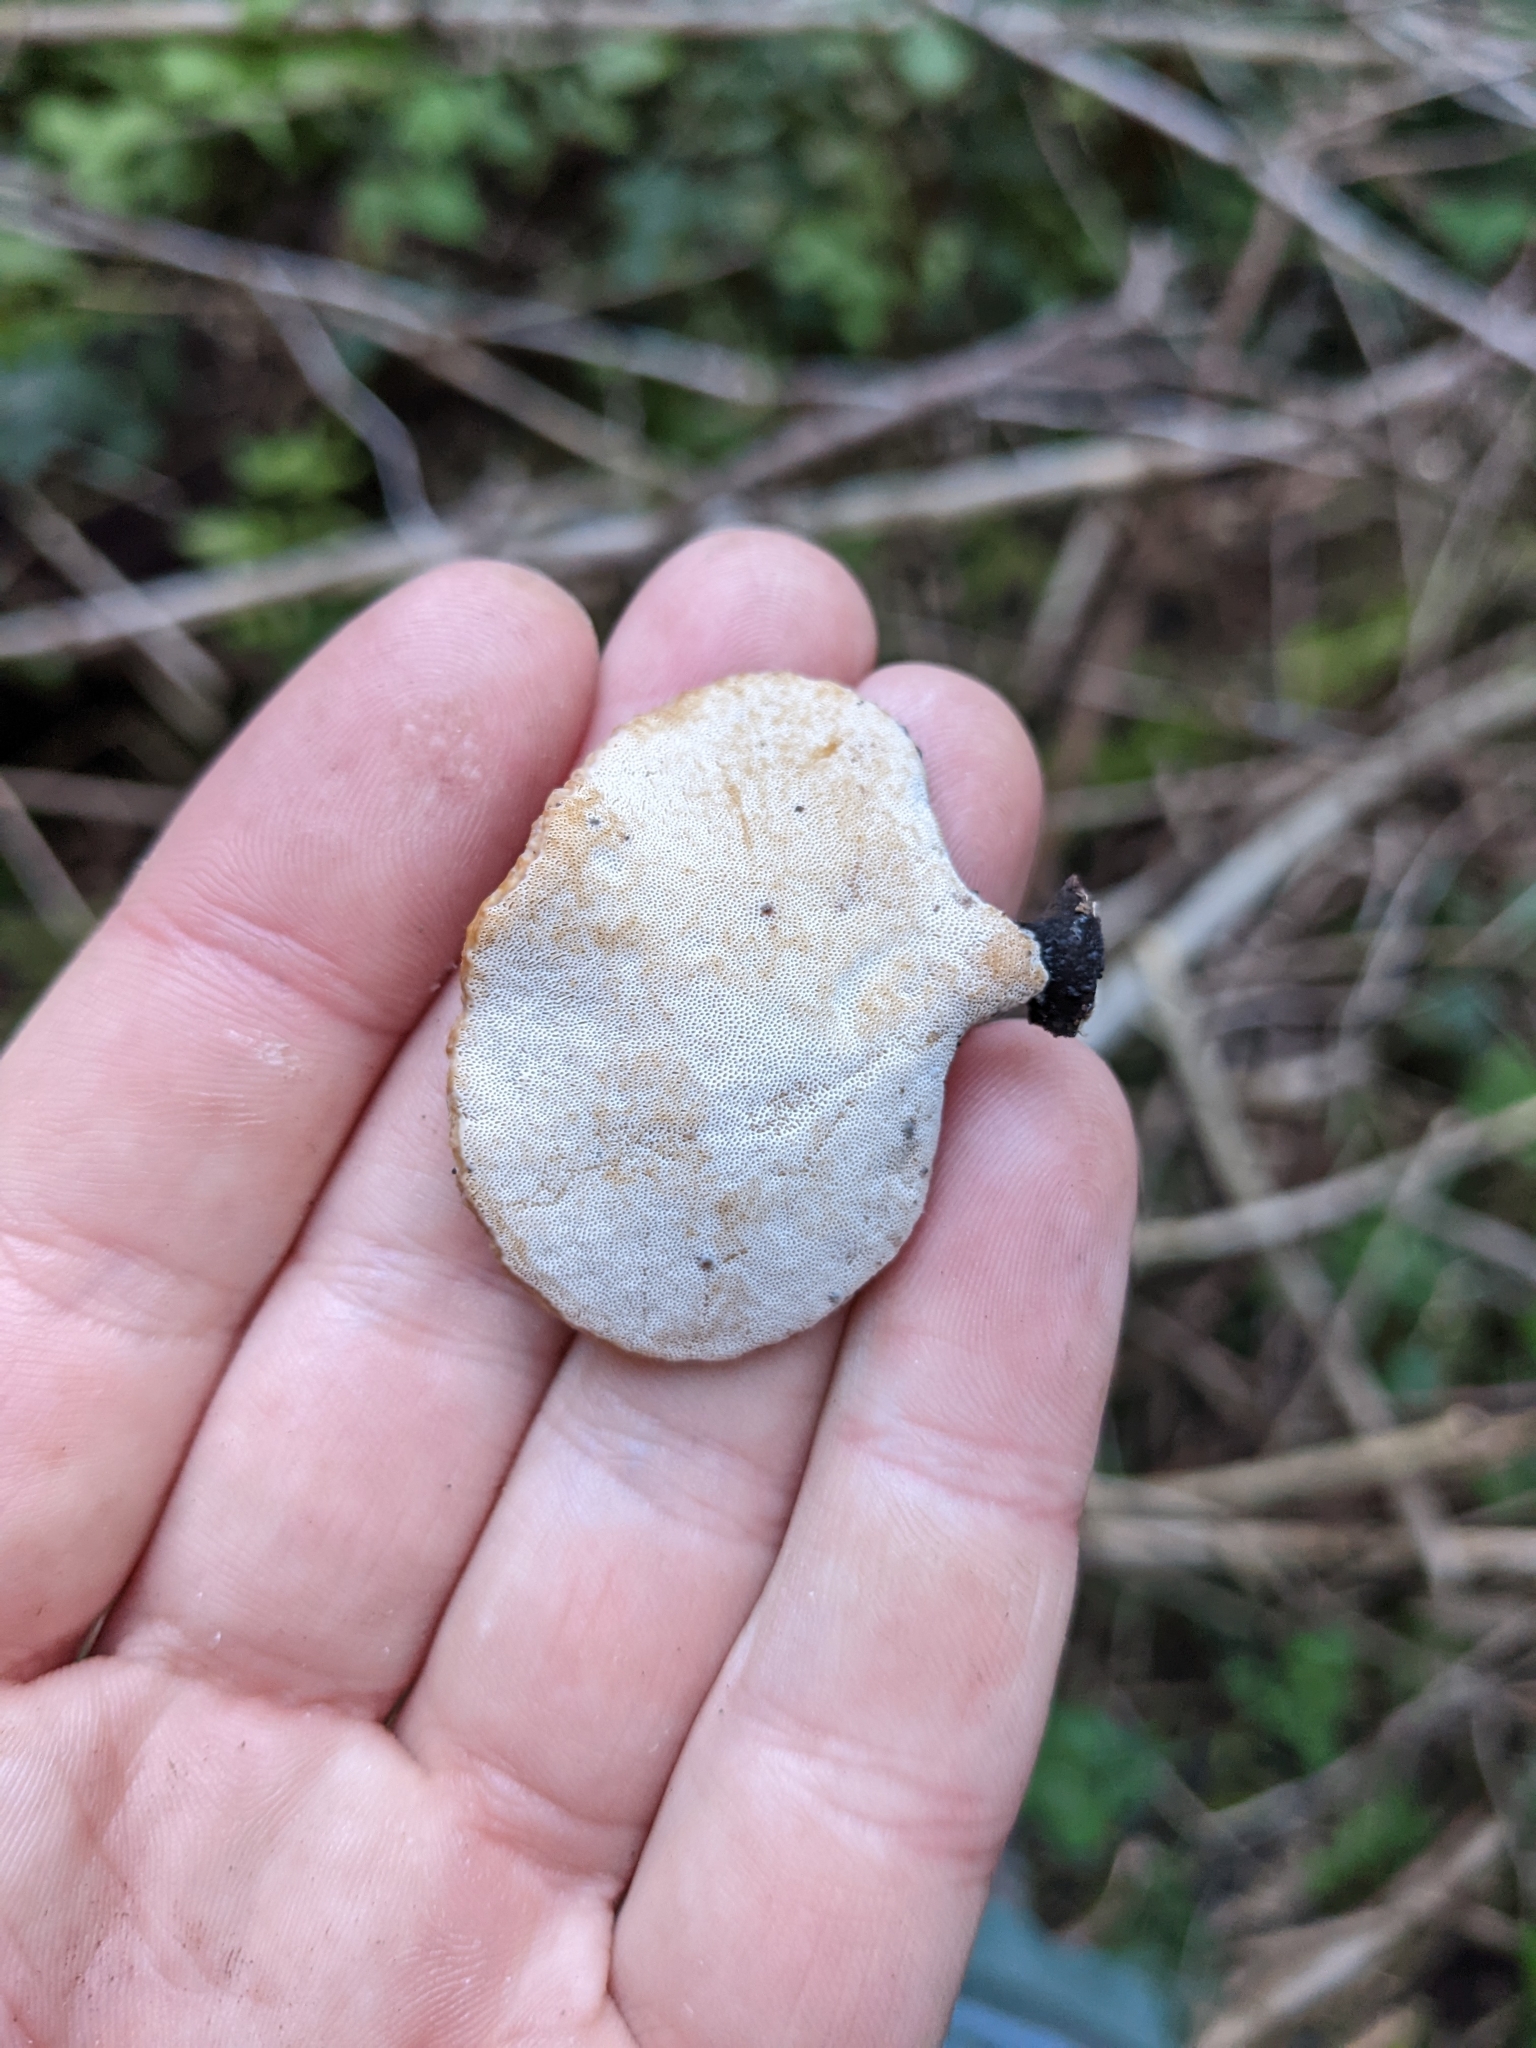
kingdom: Fungi
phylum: Basidiomycota
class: Agaricomycetes
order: Polyporales
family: Polyporaceae
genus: Cerioporus
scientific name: Cerioporus leptocephalus
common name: Blackfoot polypore
